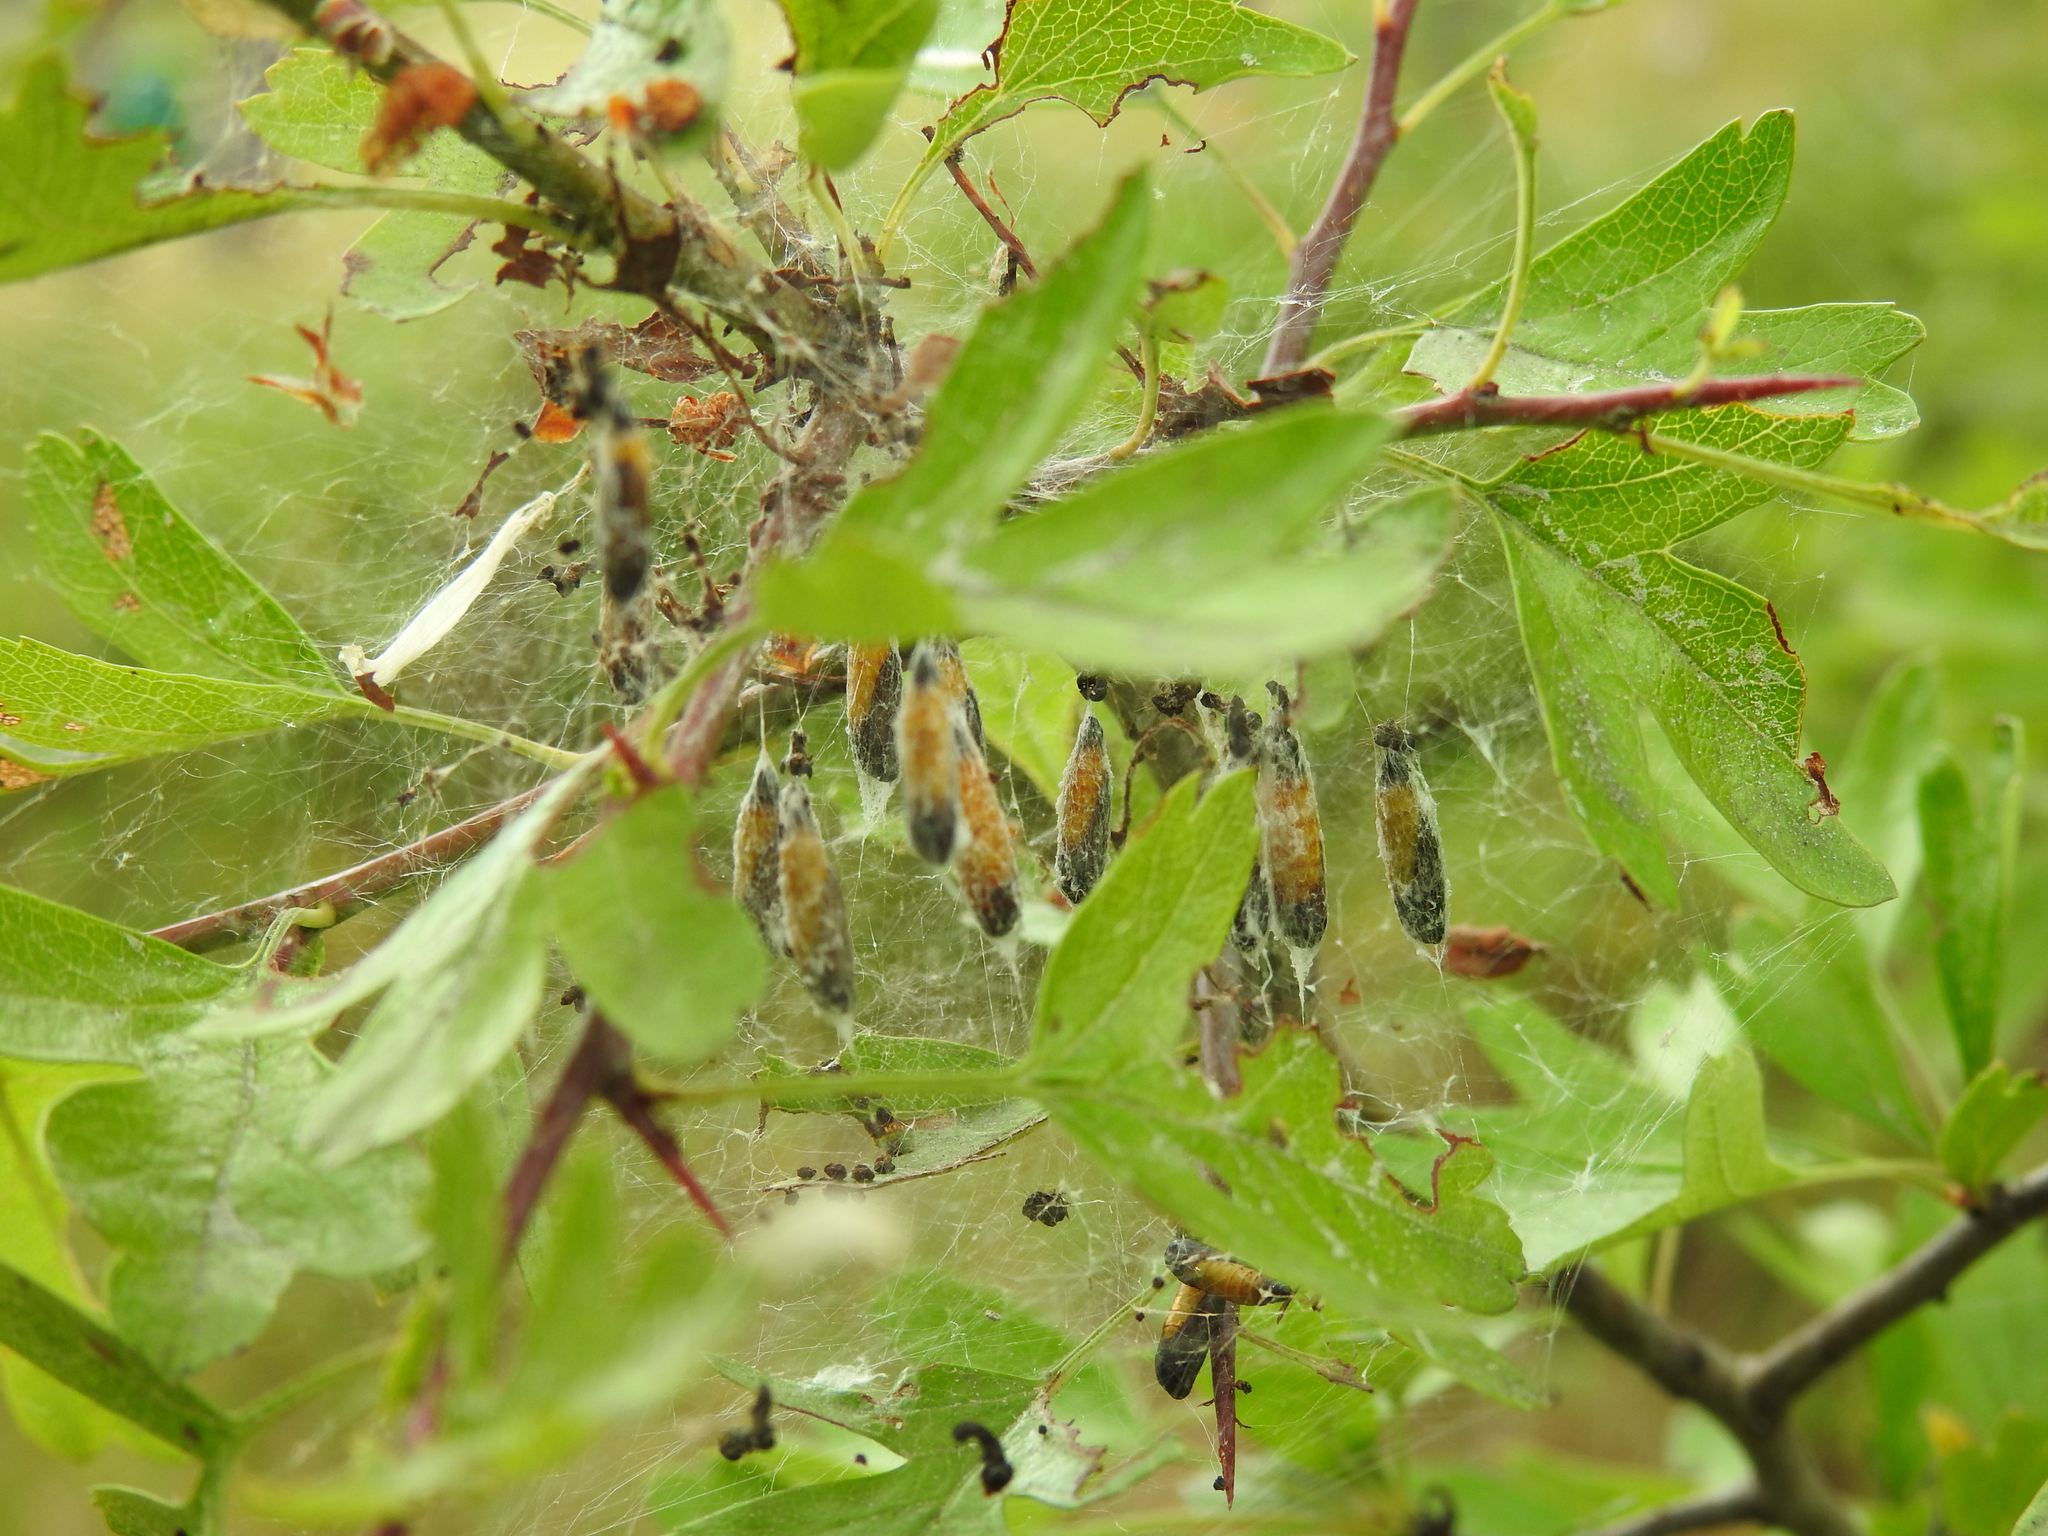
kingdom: Animalia
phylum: Arthropoda
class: Insecta
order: Lepidoptera
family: Yponomeutidae
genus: Yponomeuta
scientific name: Yponomeuta padella
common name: Orchard ermine
